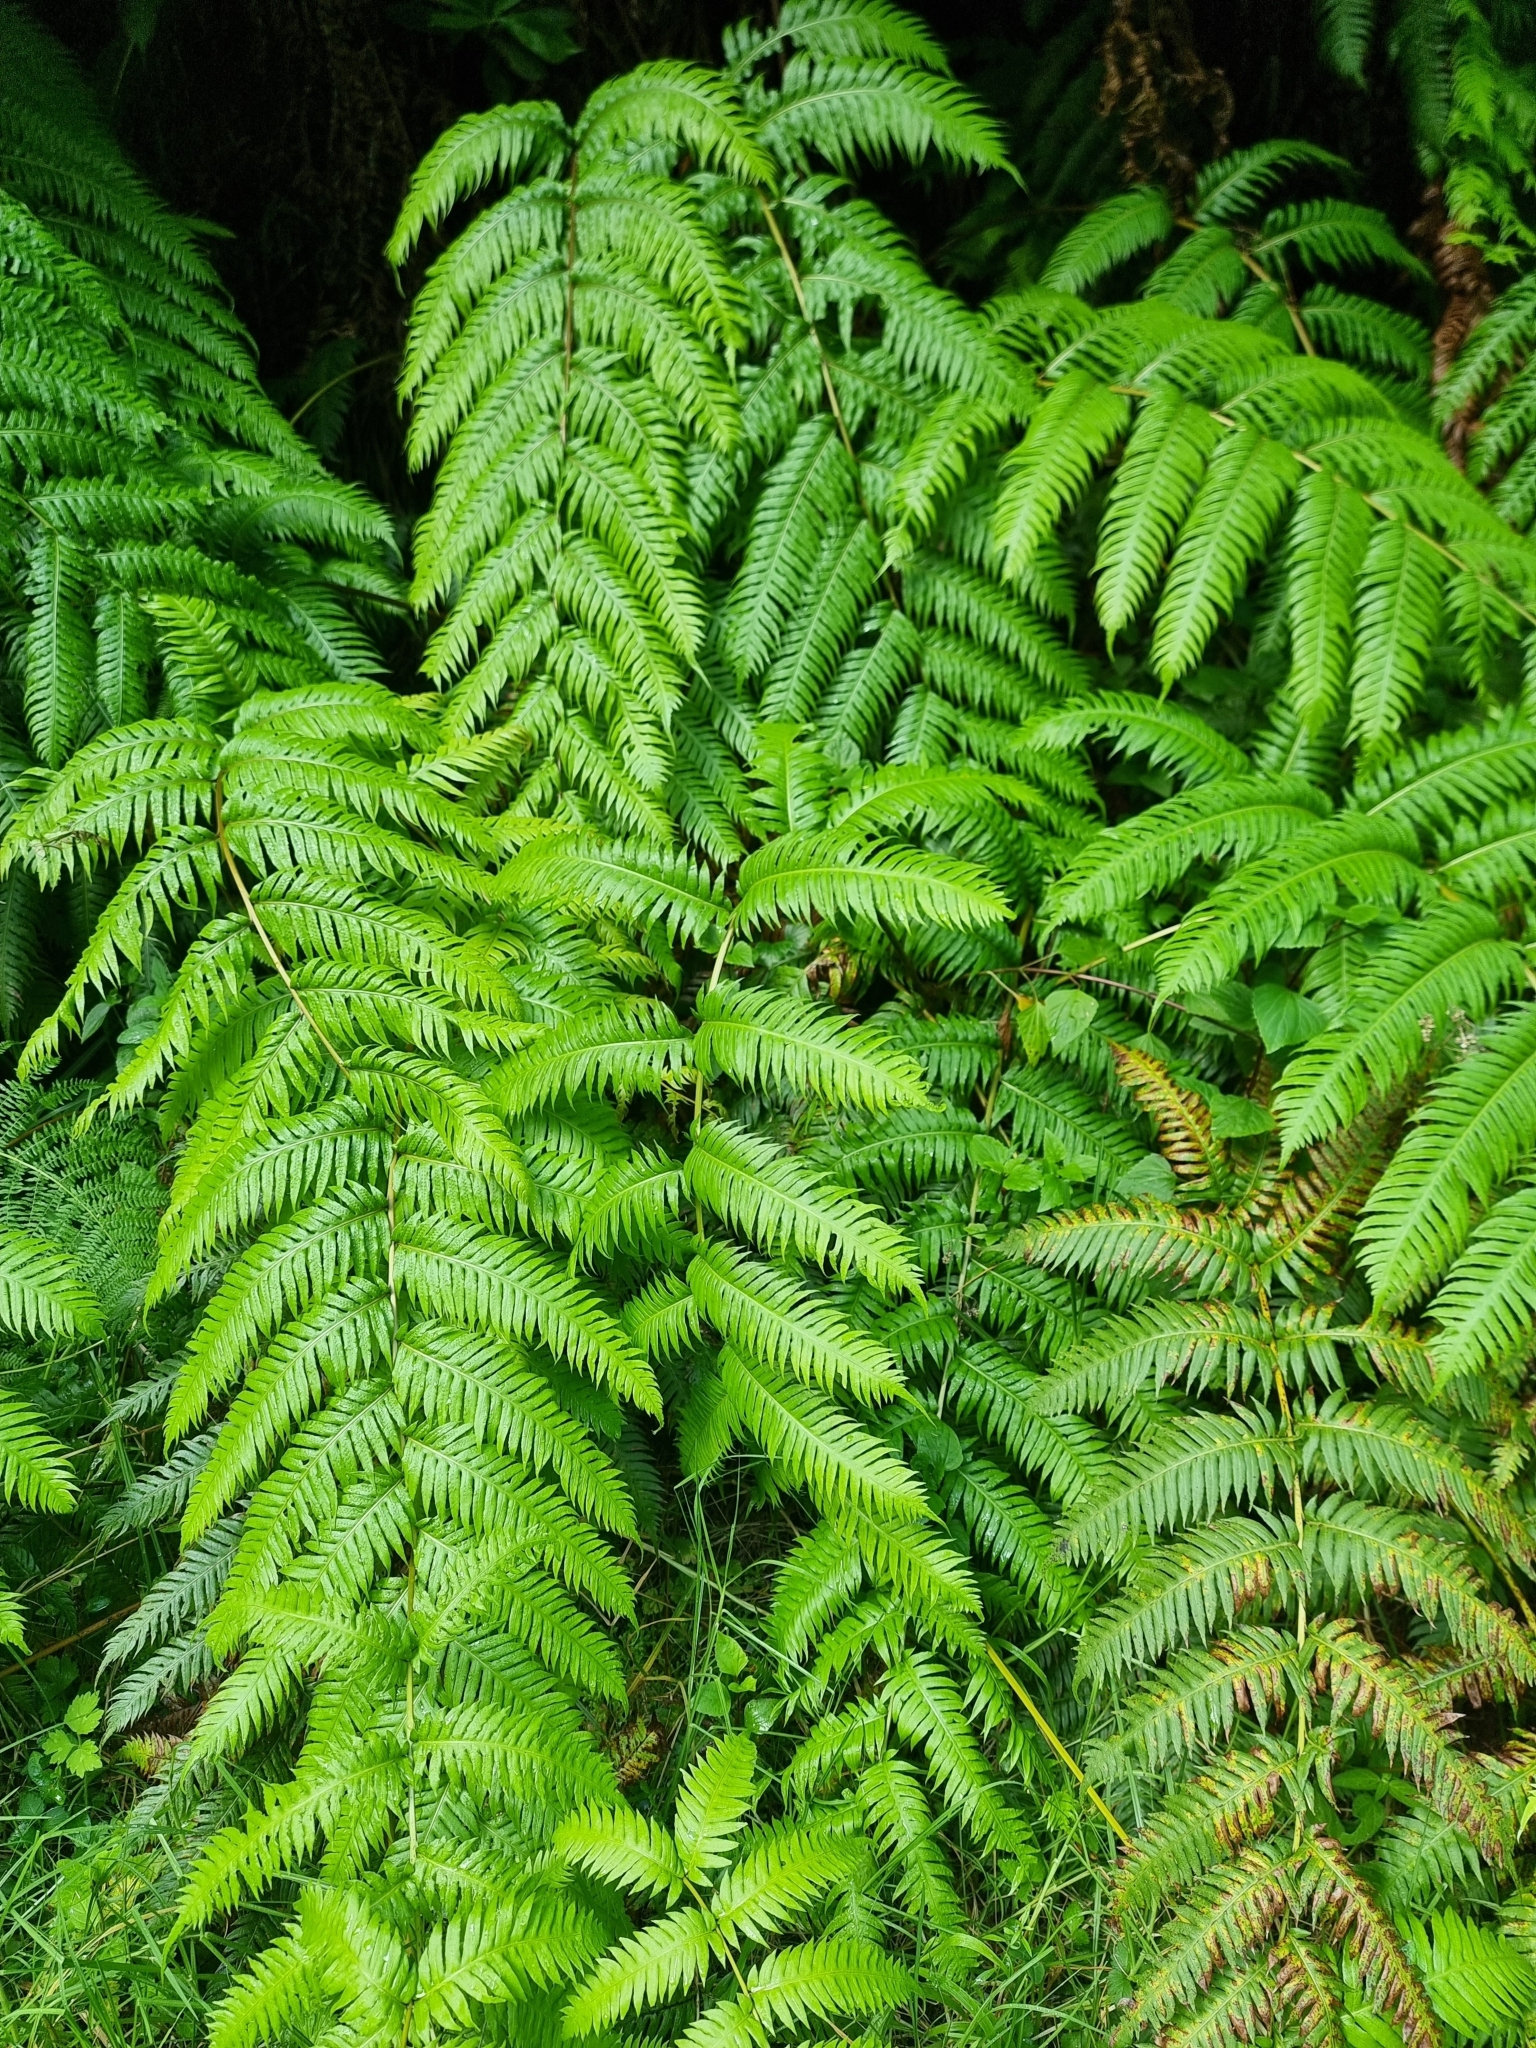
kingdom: Plantae
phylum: Tracheophyta
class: Polypodiopsida
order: Polypodiales
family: Blechnaceae
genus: Woodwardia
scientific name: Woodwardia radicans
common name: Rooting chainfern
